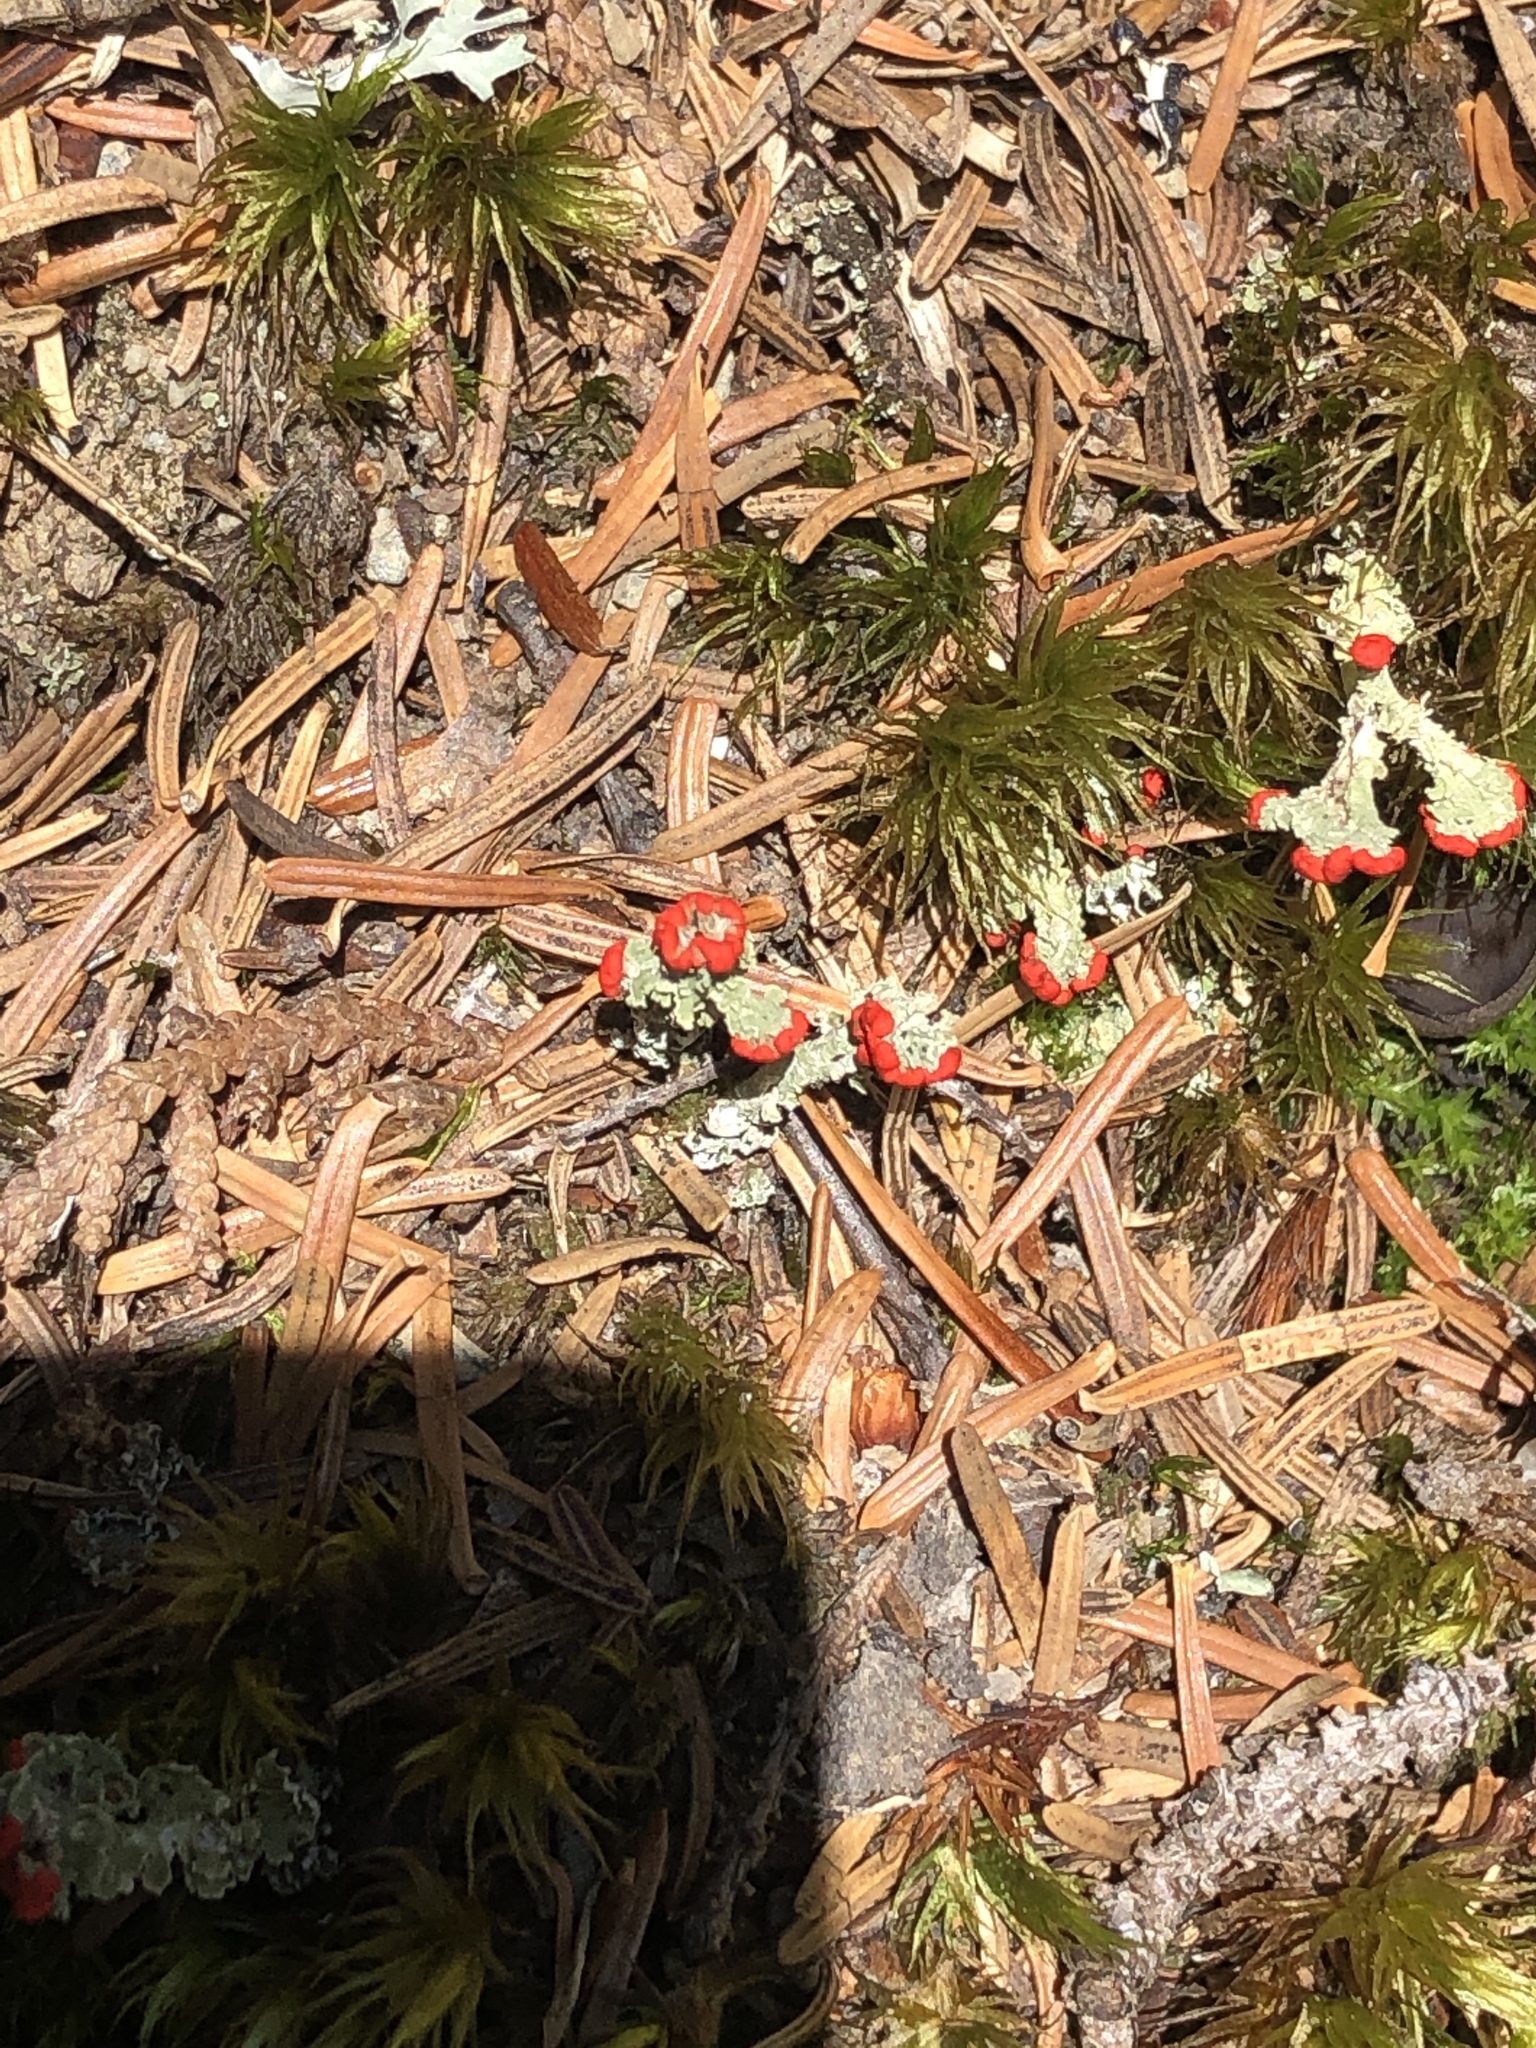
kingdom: Fungi
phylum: Ascomycota
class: Lecanoromycetes
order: Lecanorales
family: Cladoniaceae
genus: Cladonia
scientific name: Cladonia cristatella
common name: British soldier lichen
